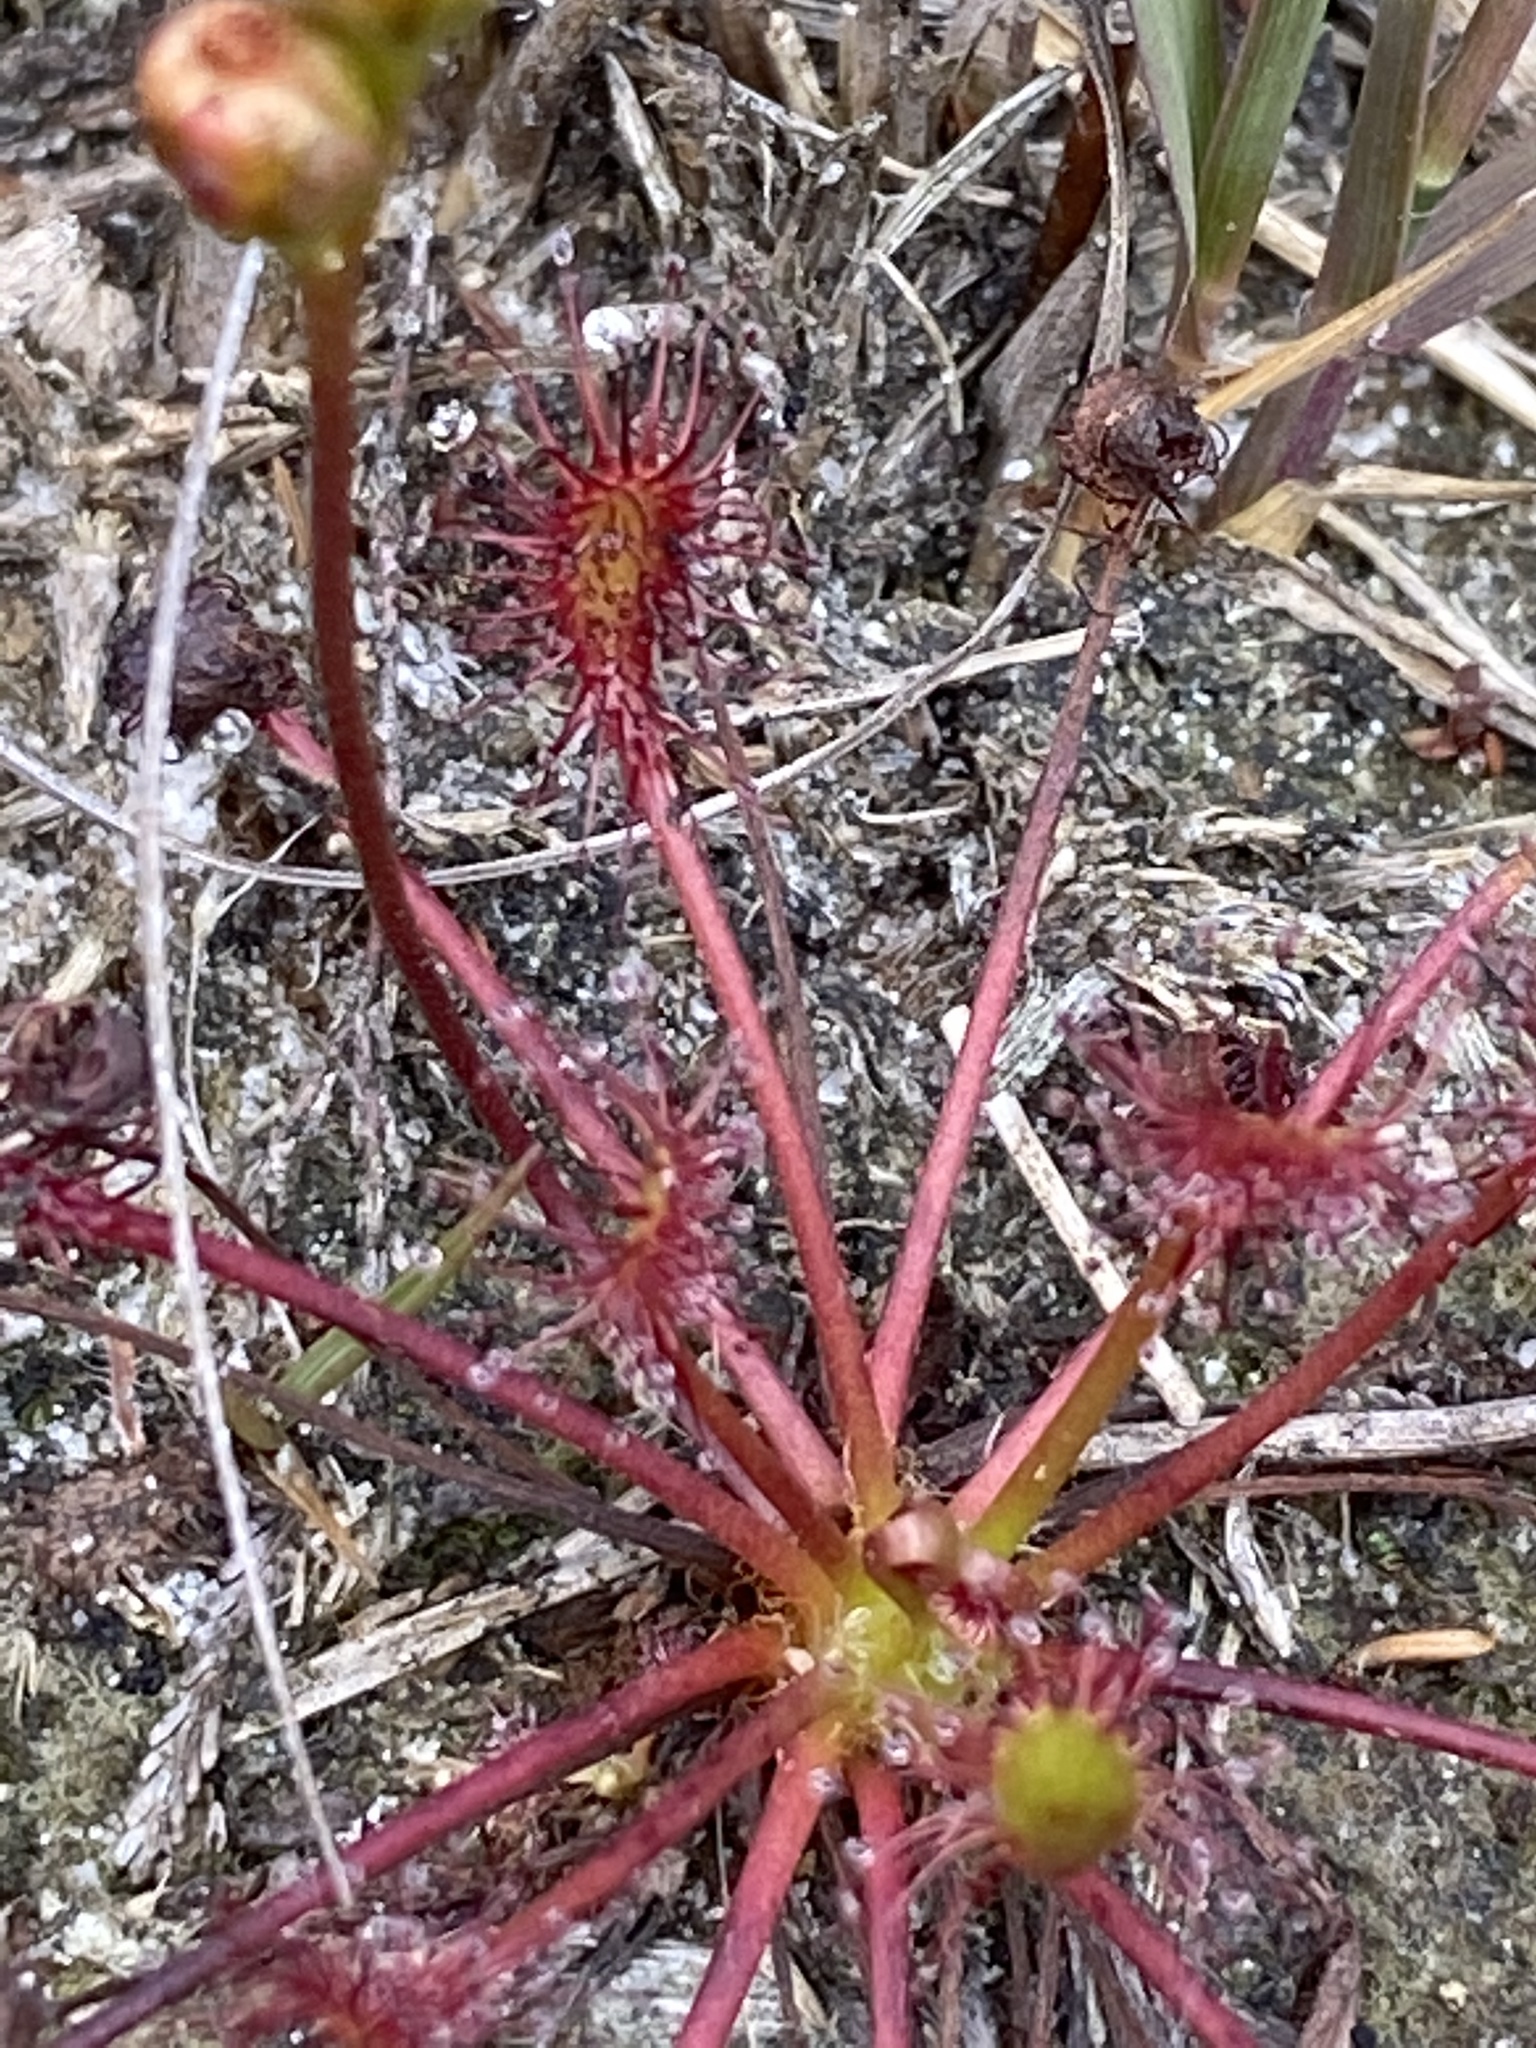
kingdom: Plantae
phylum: Tracheophyta
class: Magnoliopsida
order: Caryophyllales
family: Droseraceae
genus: Drosera
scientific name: Drosera intermedia
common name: Oblong-leaved sundew
